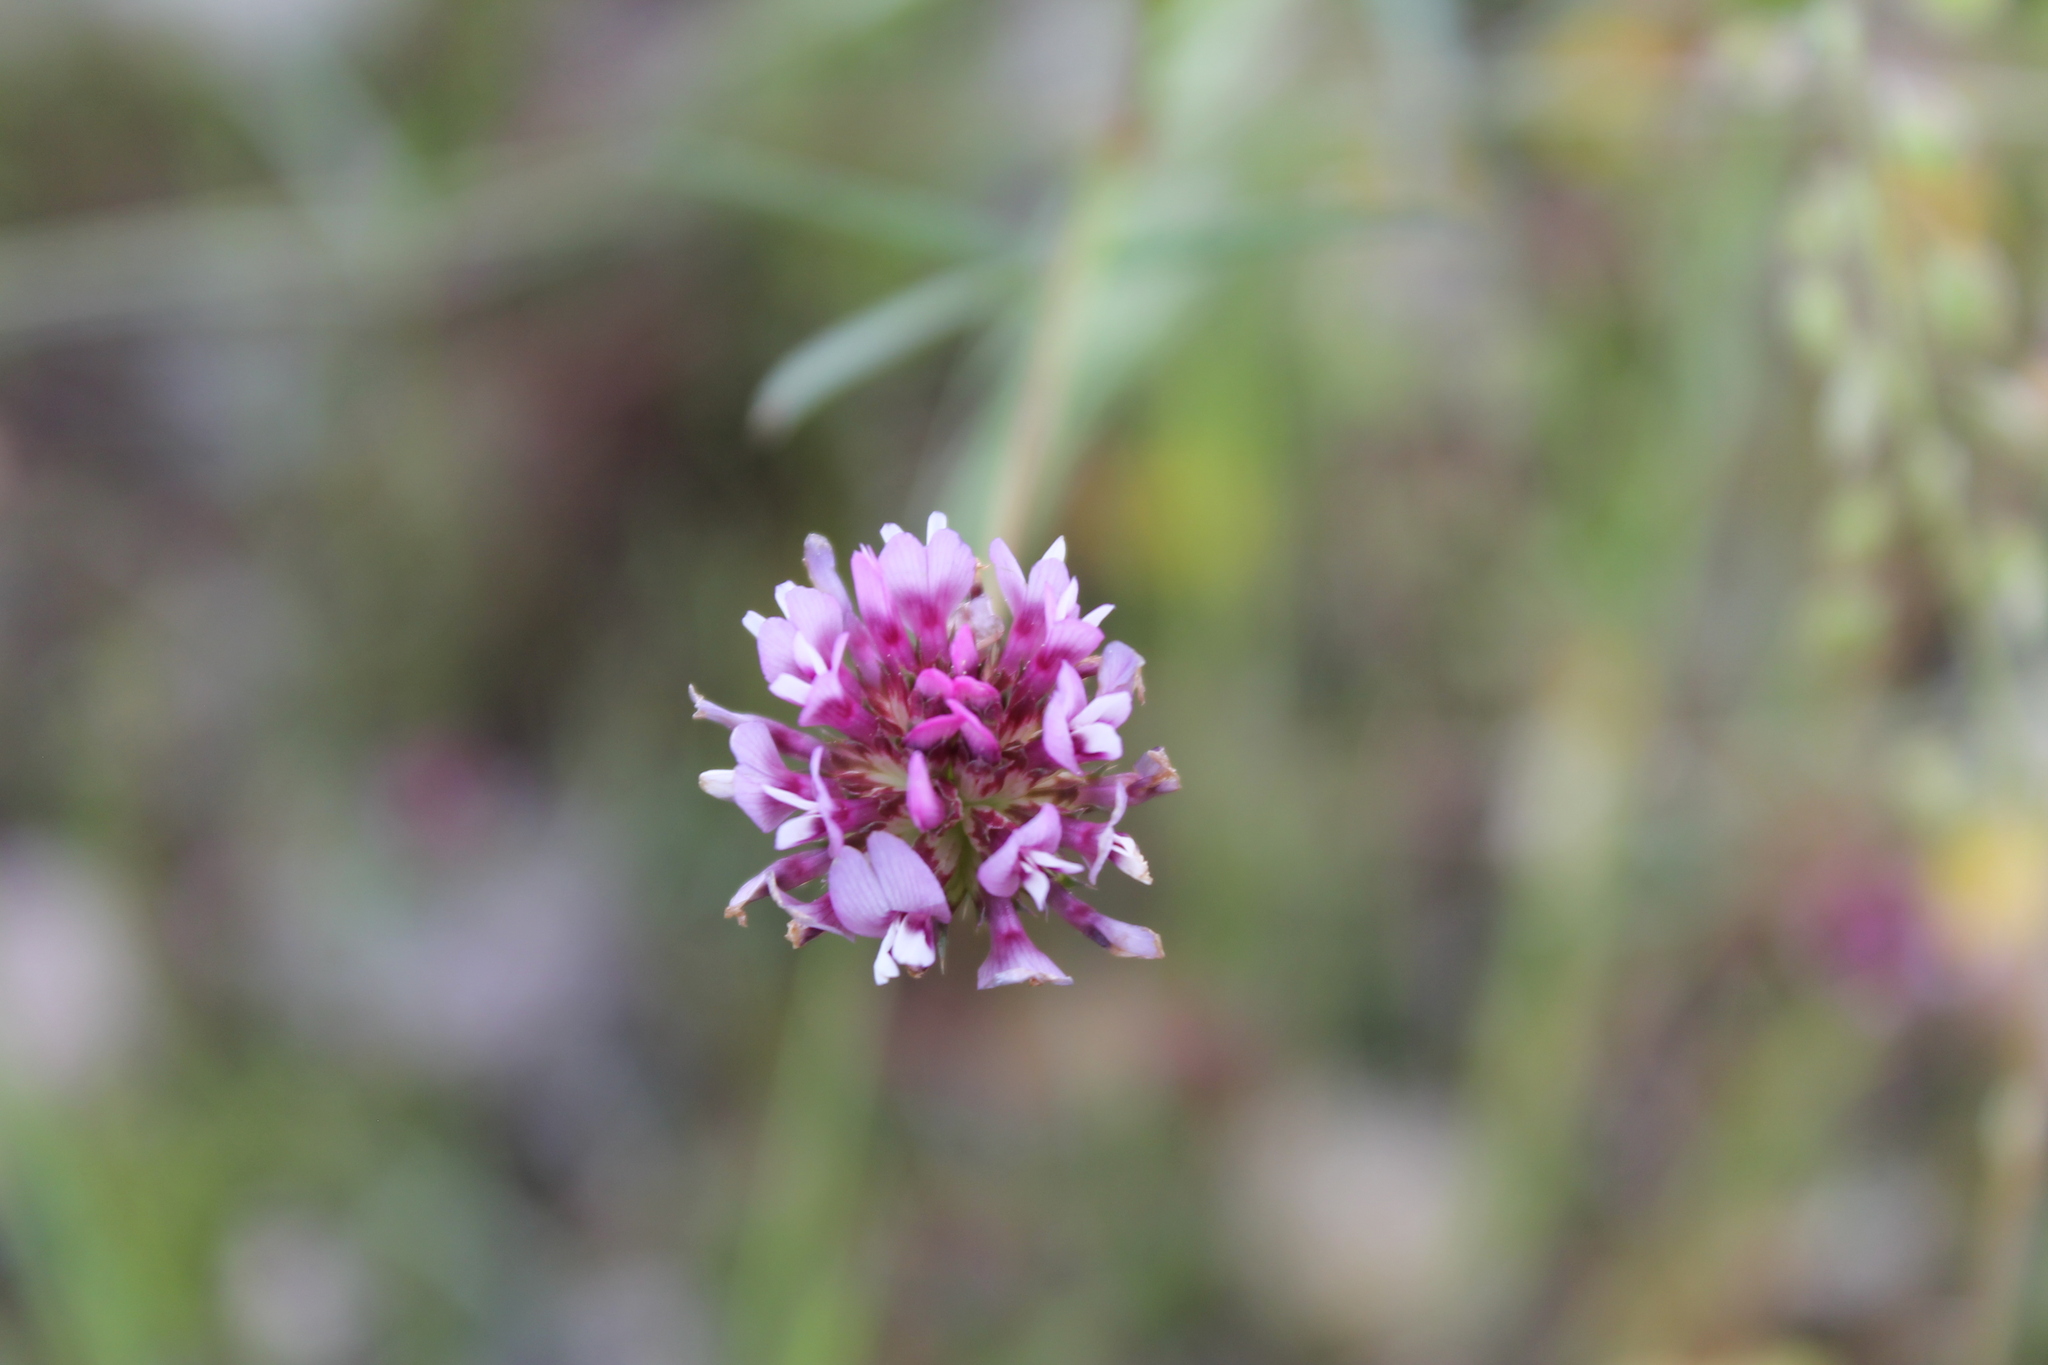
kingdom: Plantae
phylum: Tracheophyta
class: Magnoliopsida
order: Fabales
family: Fabaceae
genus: Trifolium
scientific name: Trifolium willdenovii
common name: Tomcat clover
